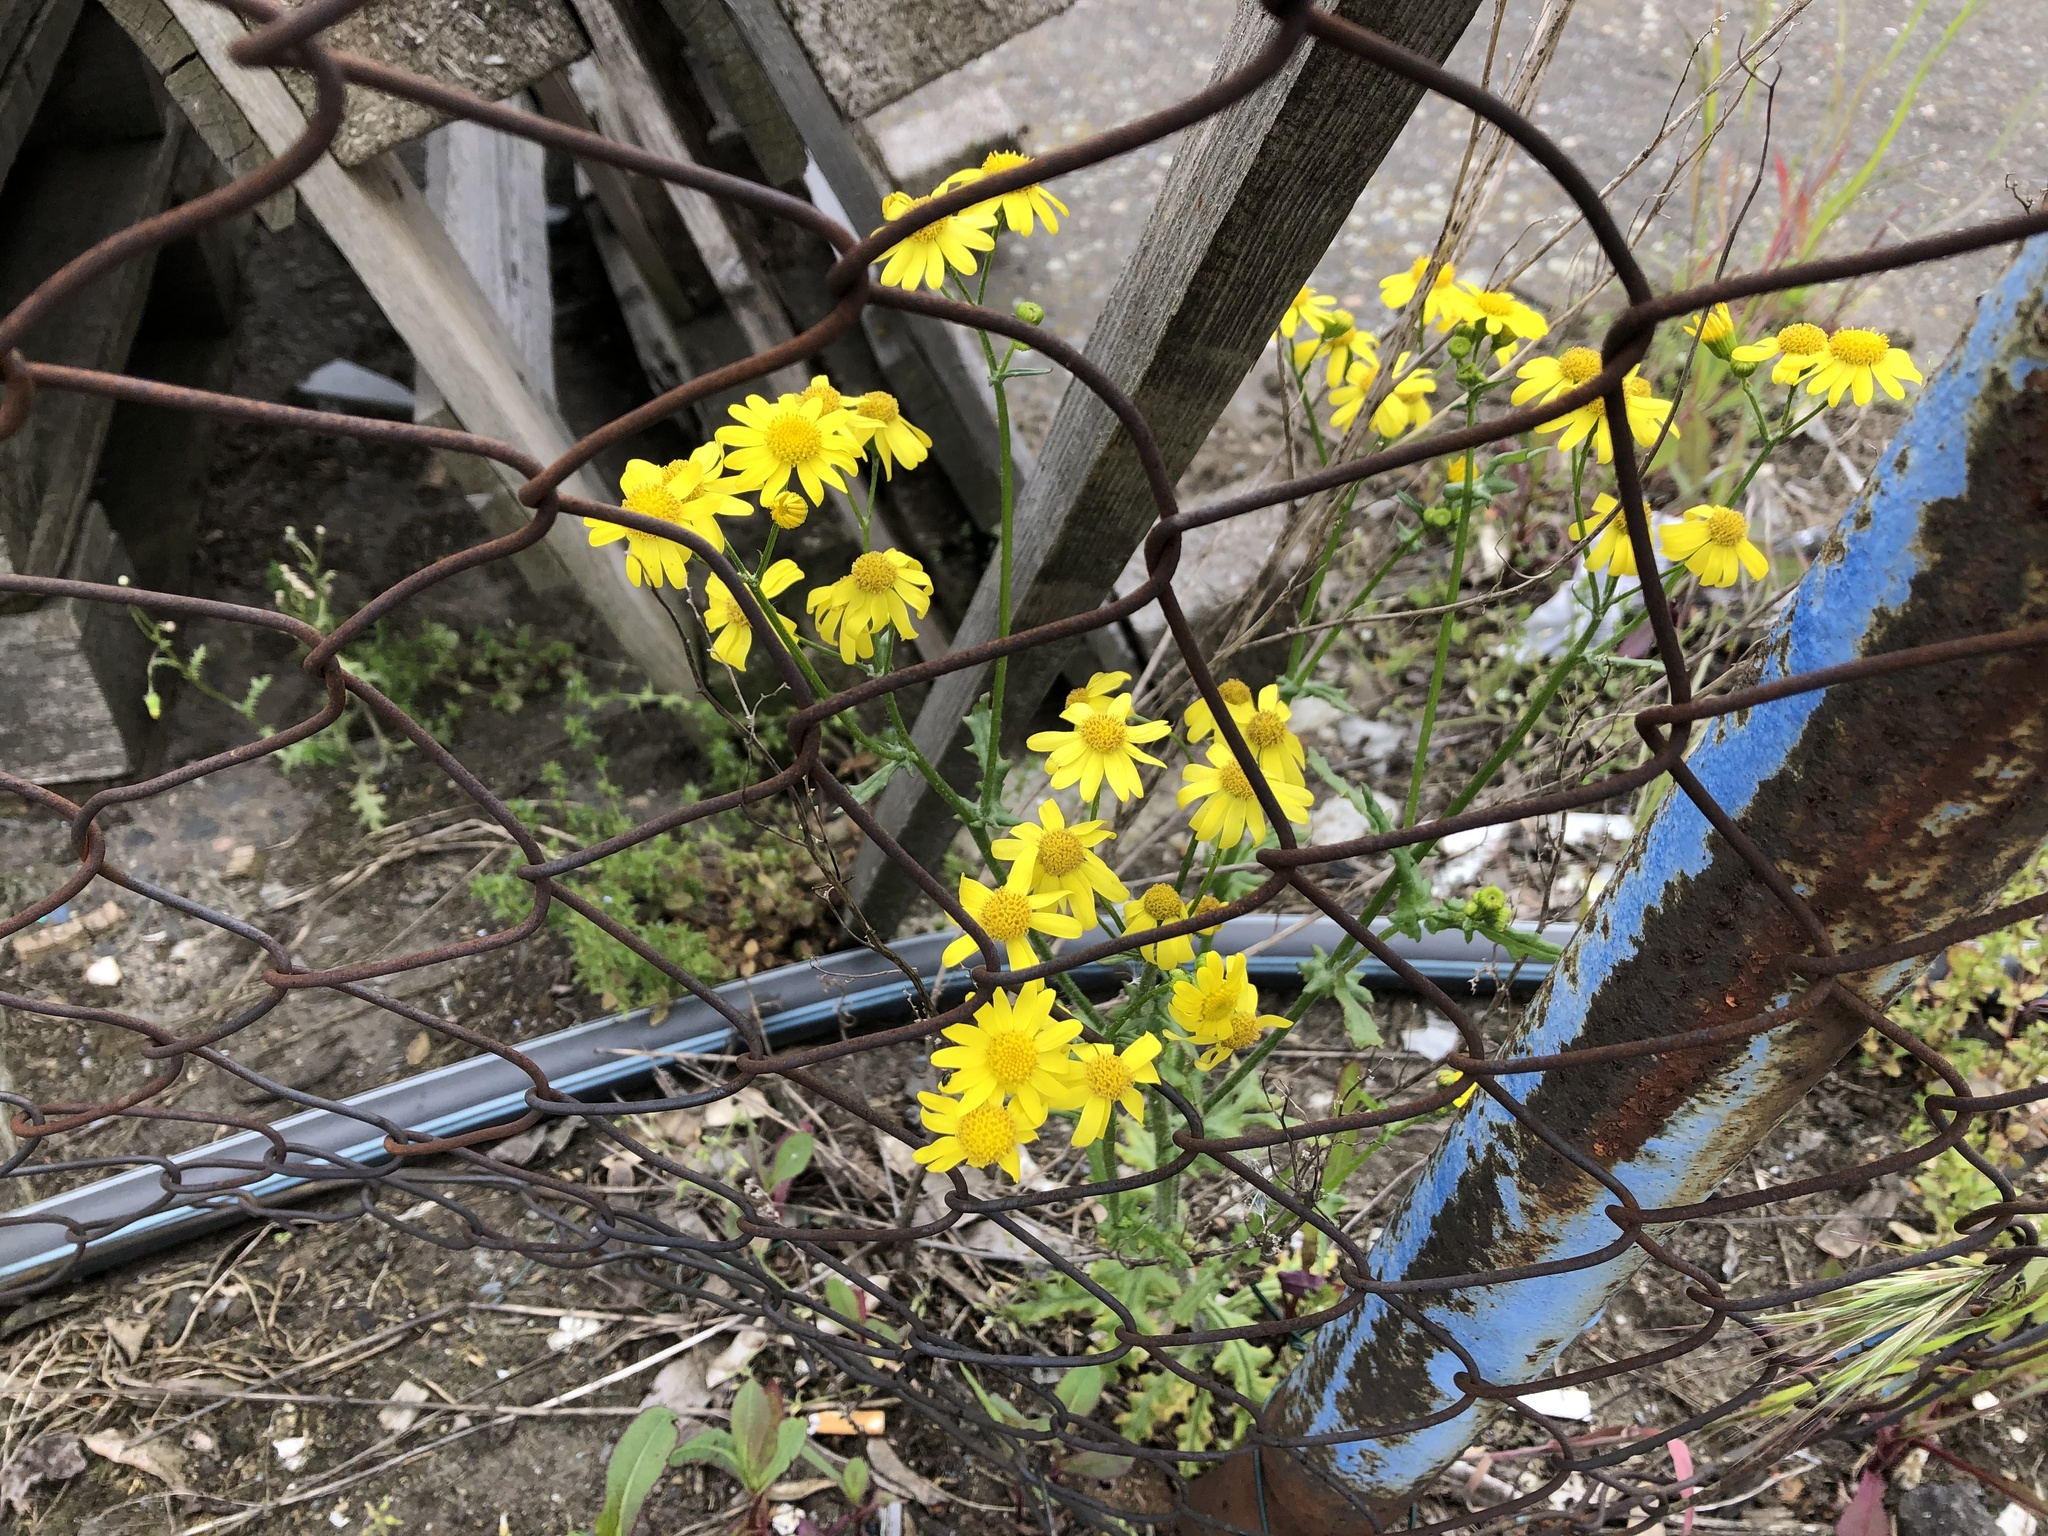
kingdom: Plantae
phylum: Tracheophyta
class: Magnoliopsida
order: Asterales
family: Asteraceae
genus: Senecio
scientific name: Senecio vernalis
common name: Eastern groundsel
